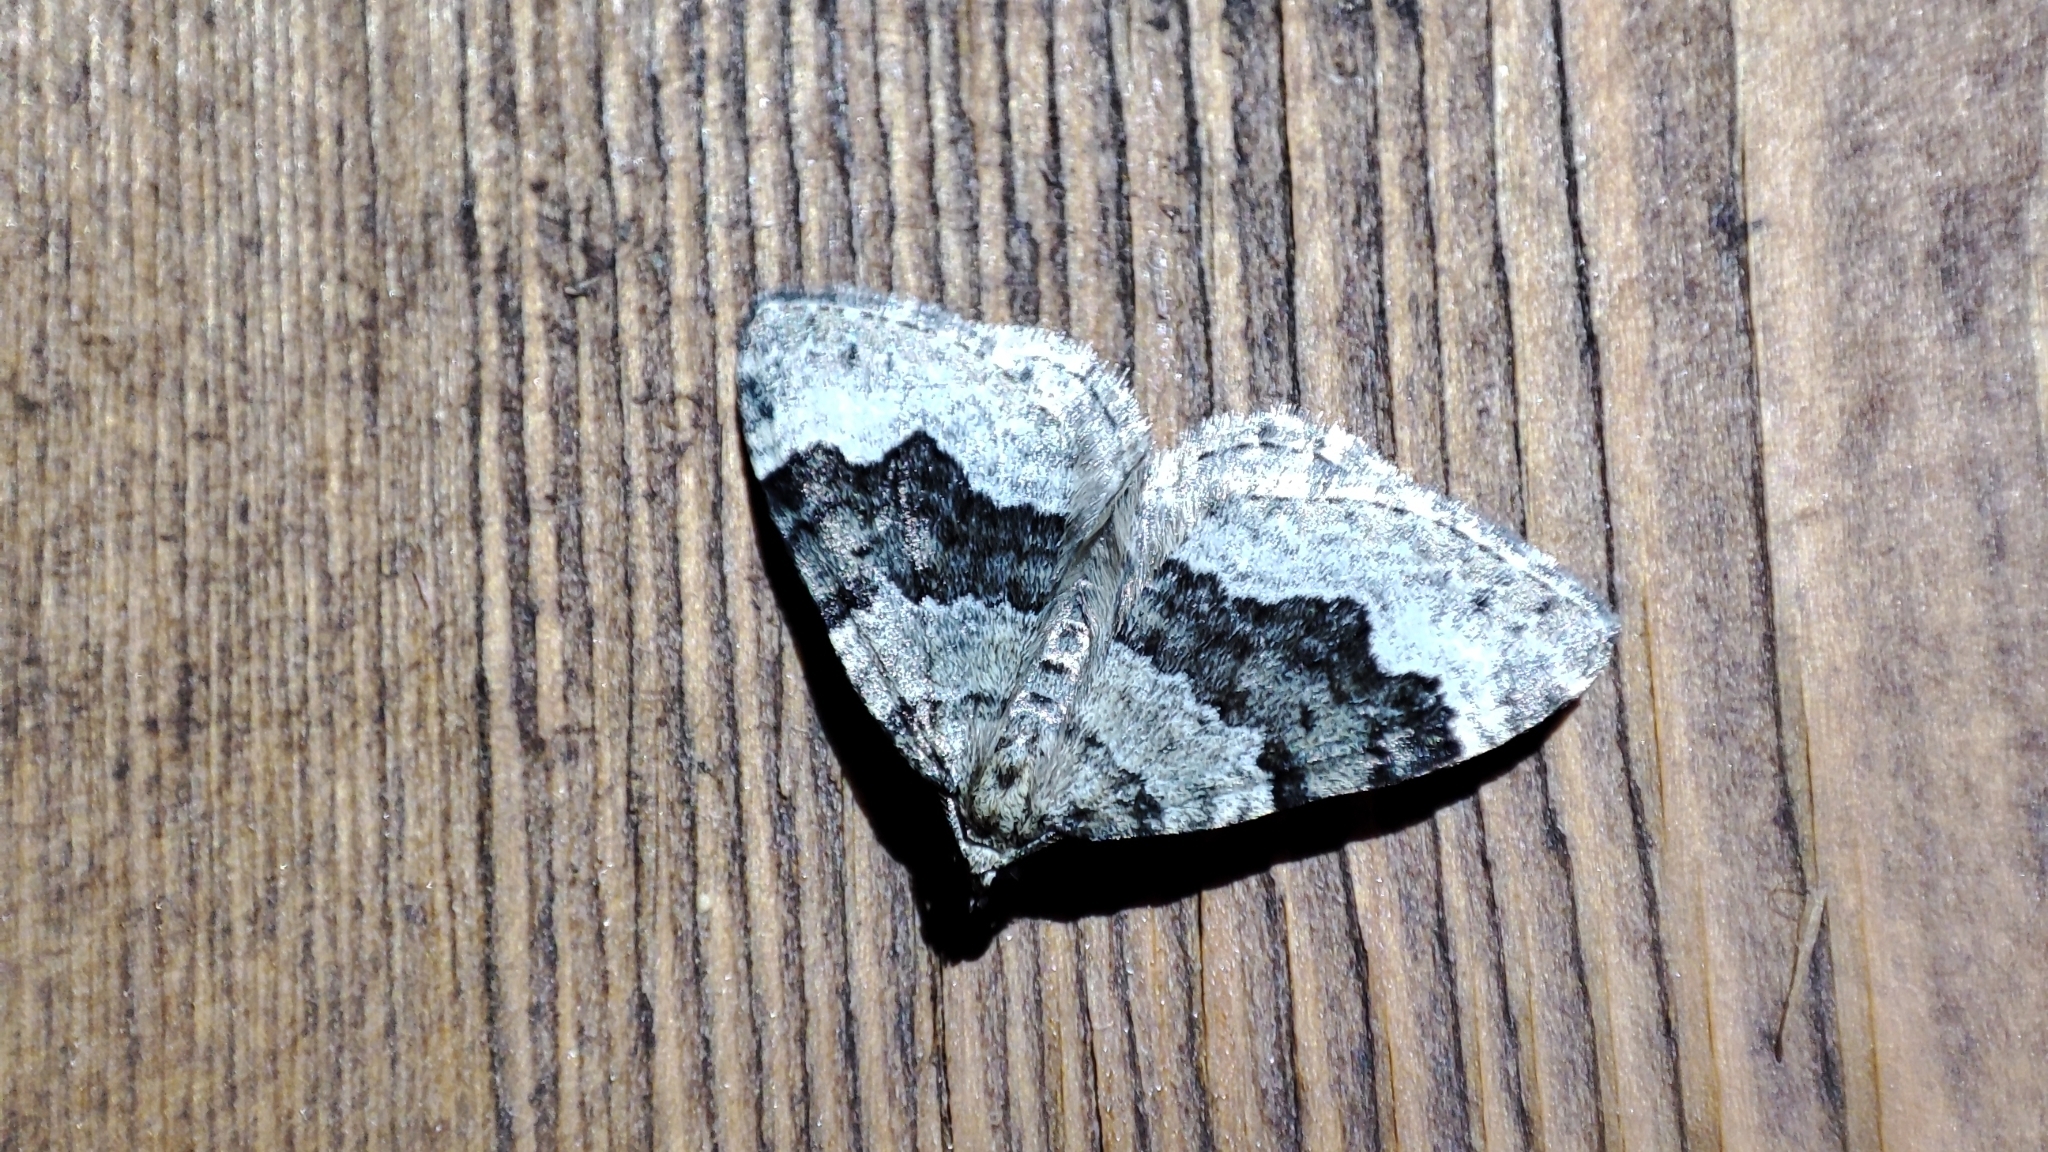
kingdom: Animalia
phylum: Arthropoda
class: Insecta
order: Lepidoptera
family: Geometridae
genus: Colostygia
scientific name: Colostygia aptata
